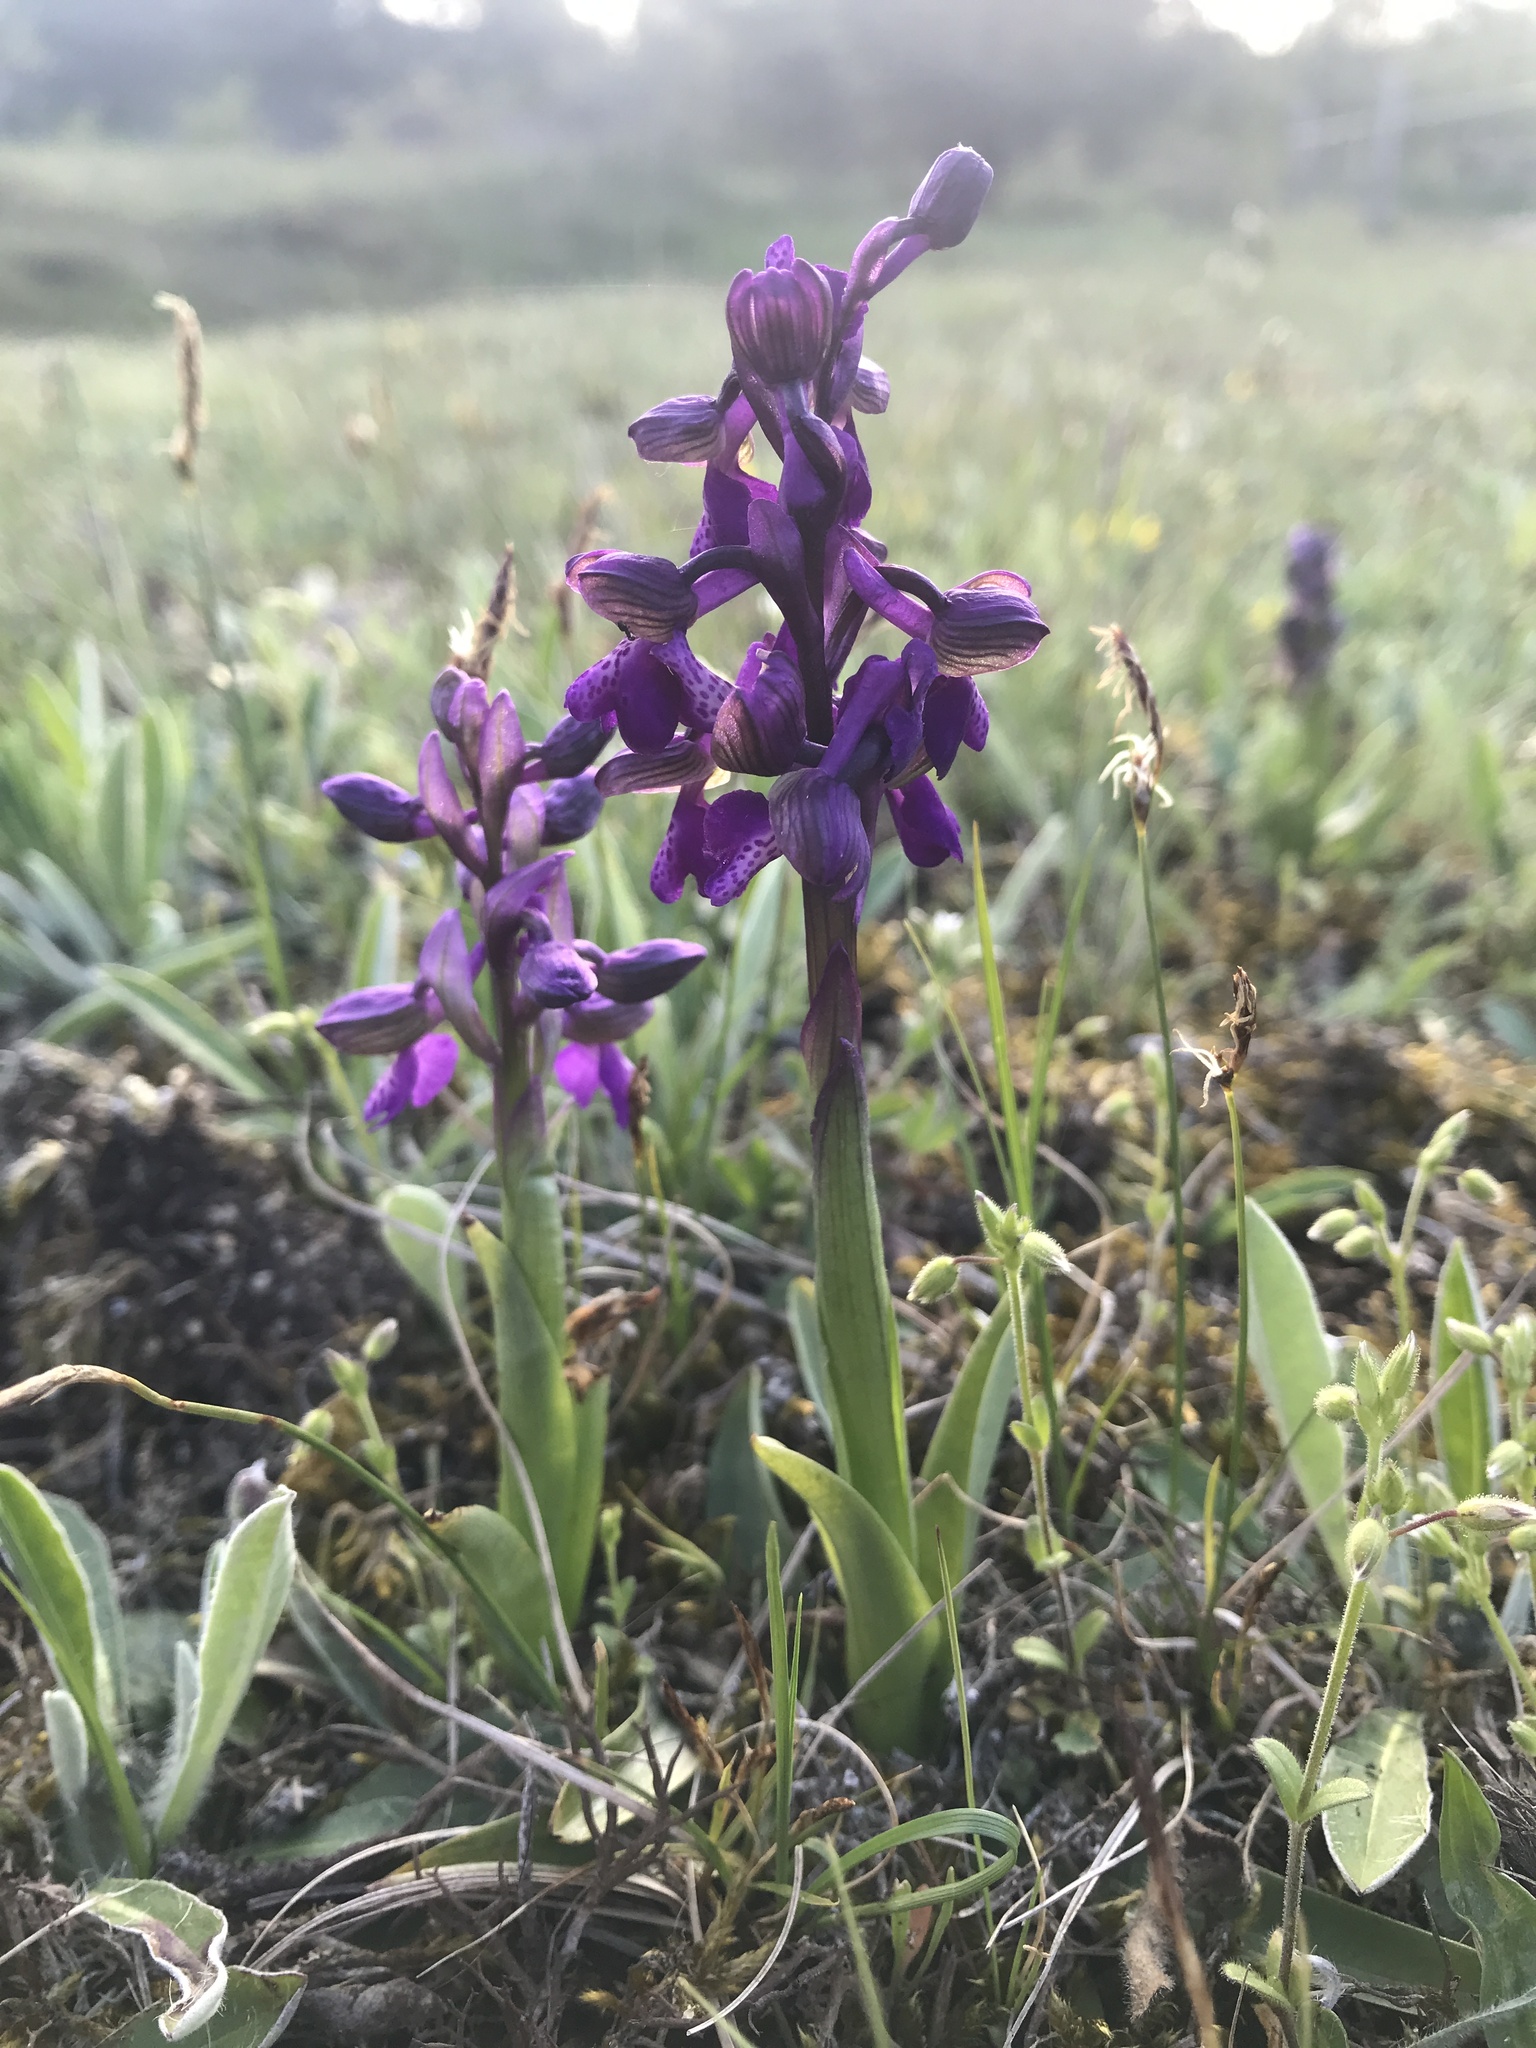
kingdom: Plantae
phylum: Tracheophyta
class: Liliopsida
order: Asparagales
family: Orchidaceae
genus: Anacamptis
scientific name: Anacamptis morio
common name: Green-winged orchid
